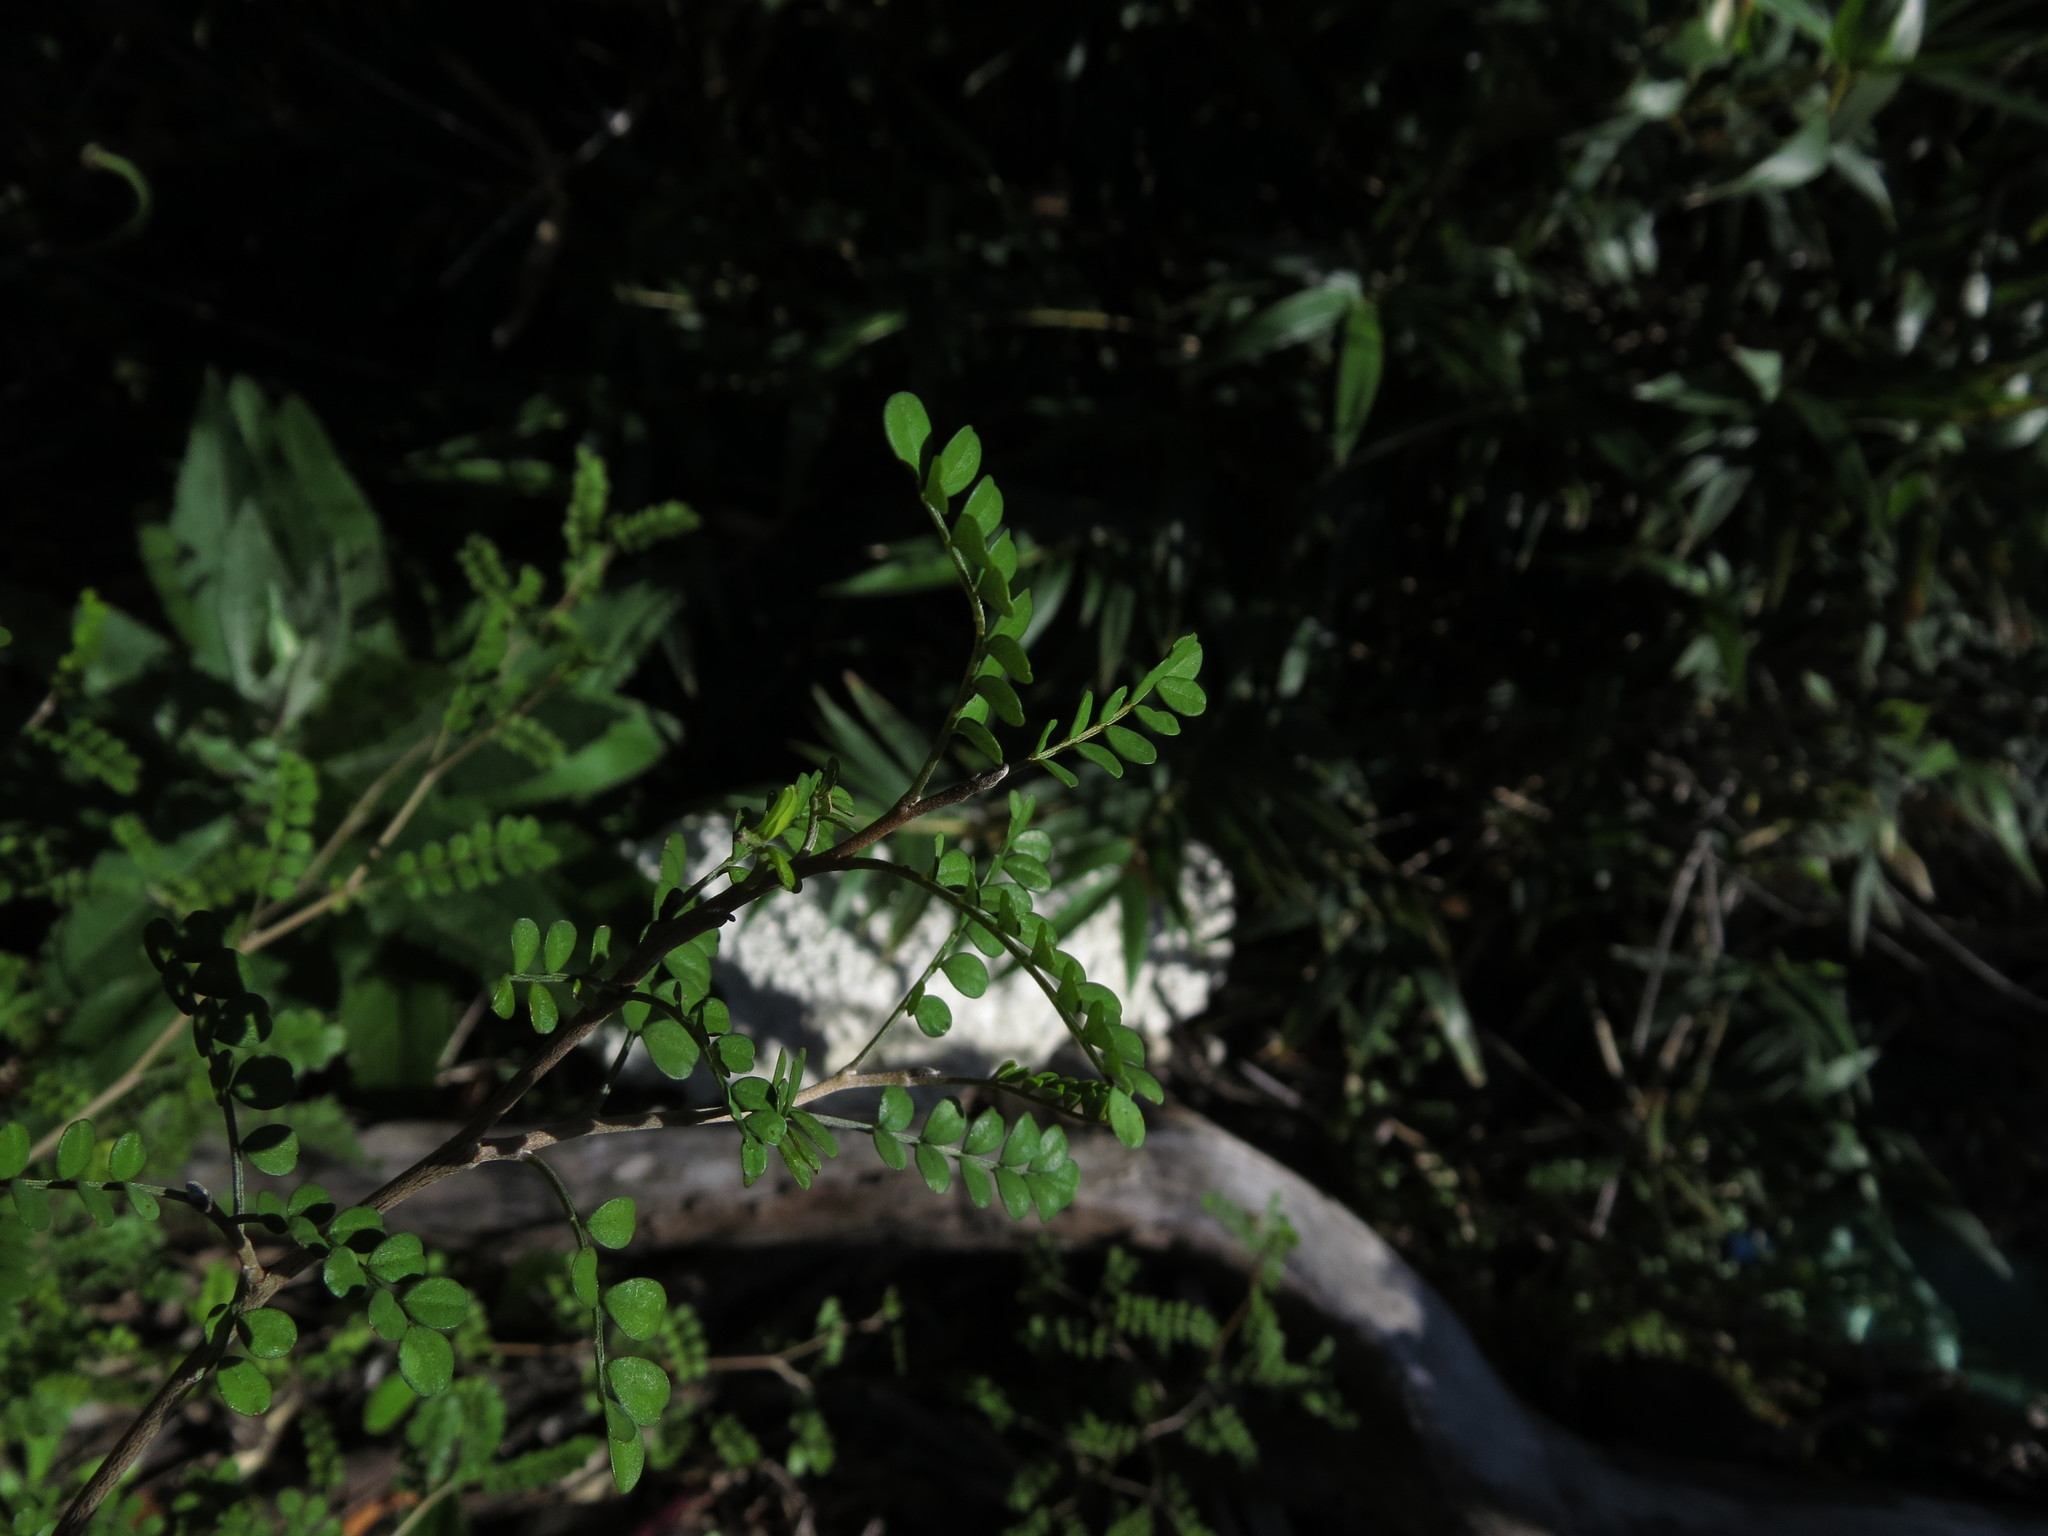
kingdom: Plantae
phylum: Tracheophyta
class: Magnoliopsida
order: Fabales
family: Fabaceae
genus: Sophora
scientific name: Sophora cassioides
